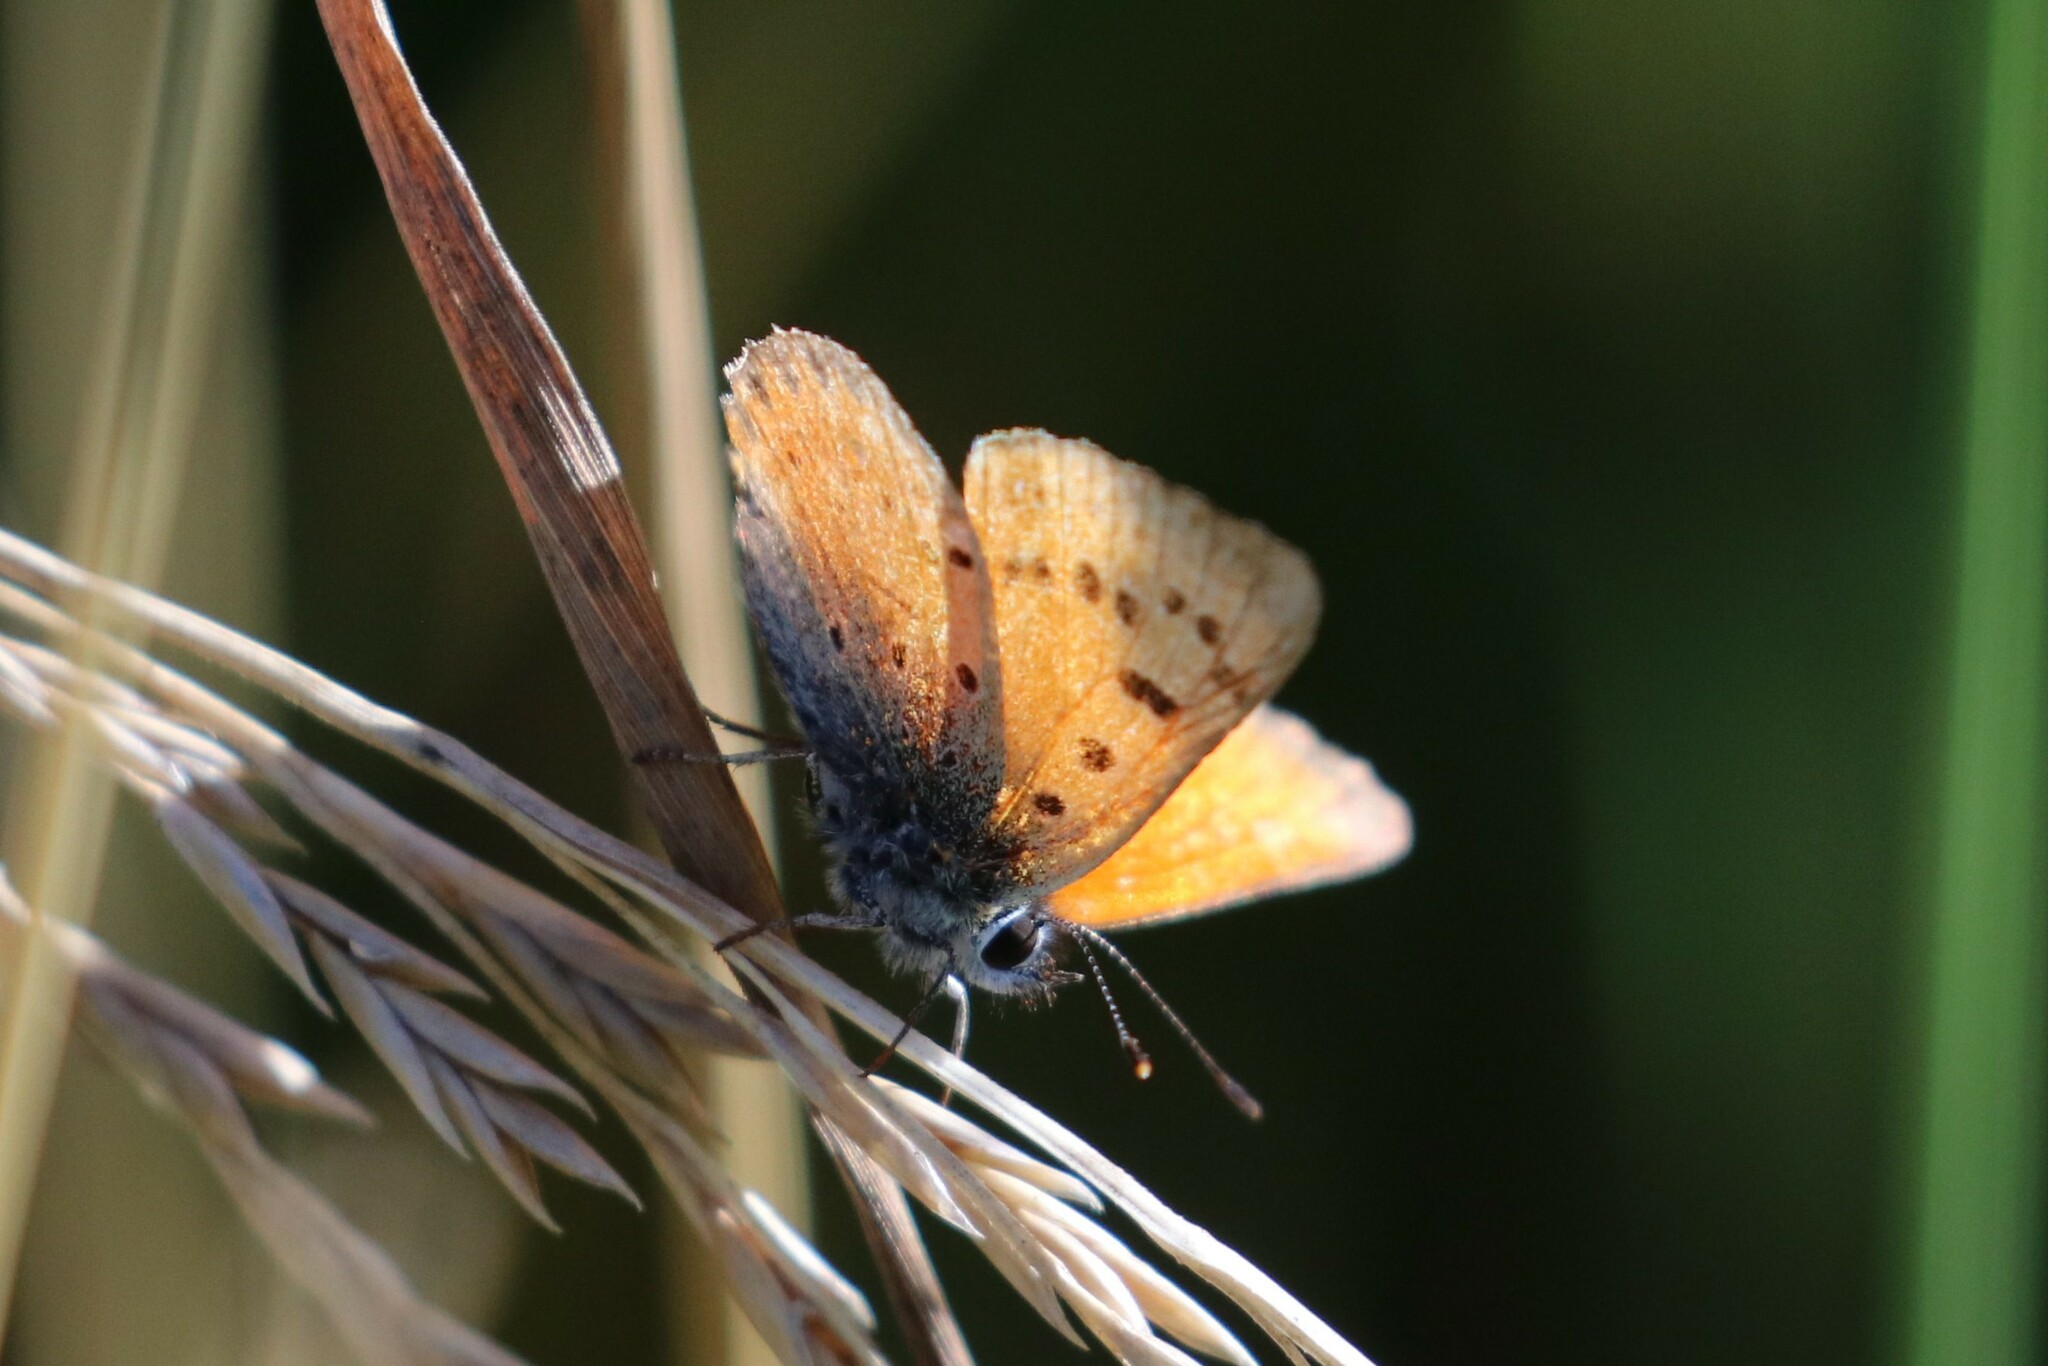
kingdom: Animalia
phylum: Arthropoda
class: Insecta
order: Lepidoptera
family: Lycaenidae
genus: Lycaena
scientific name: Lycaena virgaureae
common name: Scarce copper
